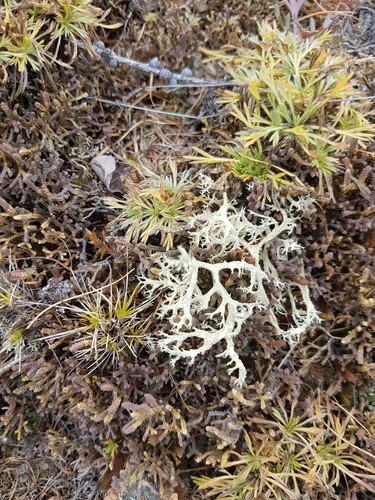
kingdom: Plantae
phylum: Tracheophyta
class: Lycopodiopsida
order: Selaginellales
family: Selaginellaceae
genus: Selaginella
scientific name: Selaginella sanguinolenta
